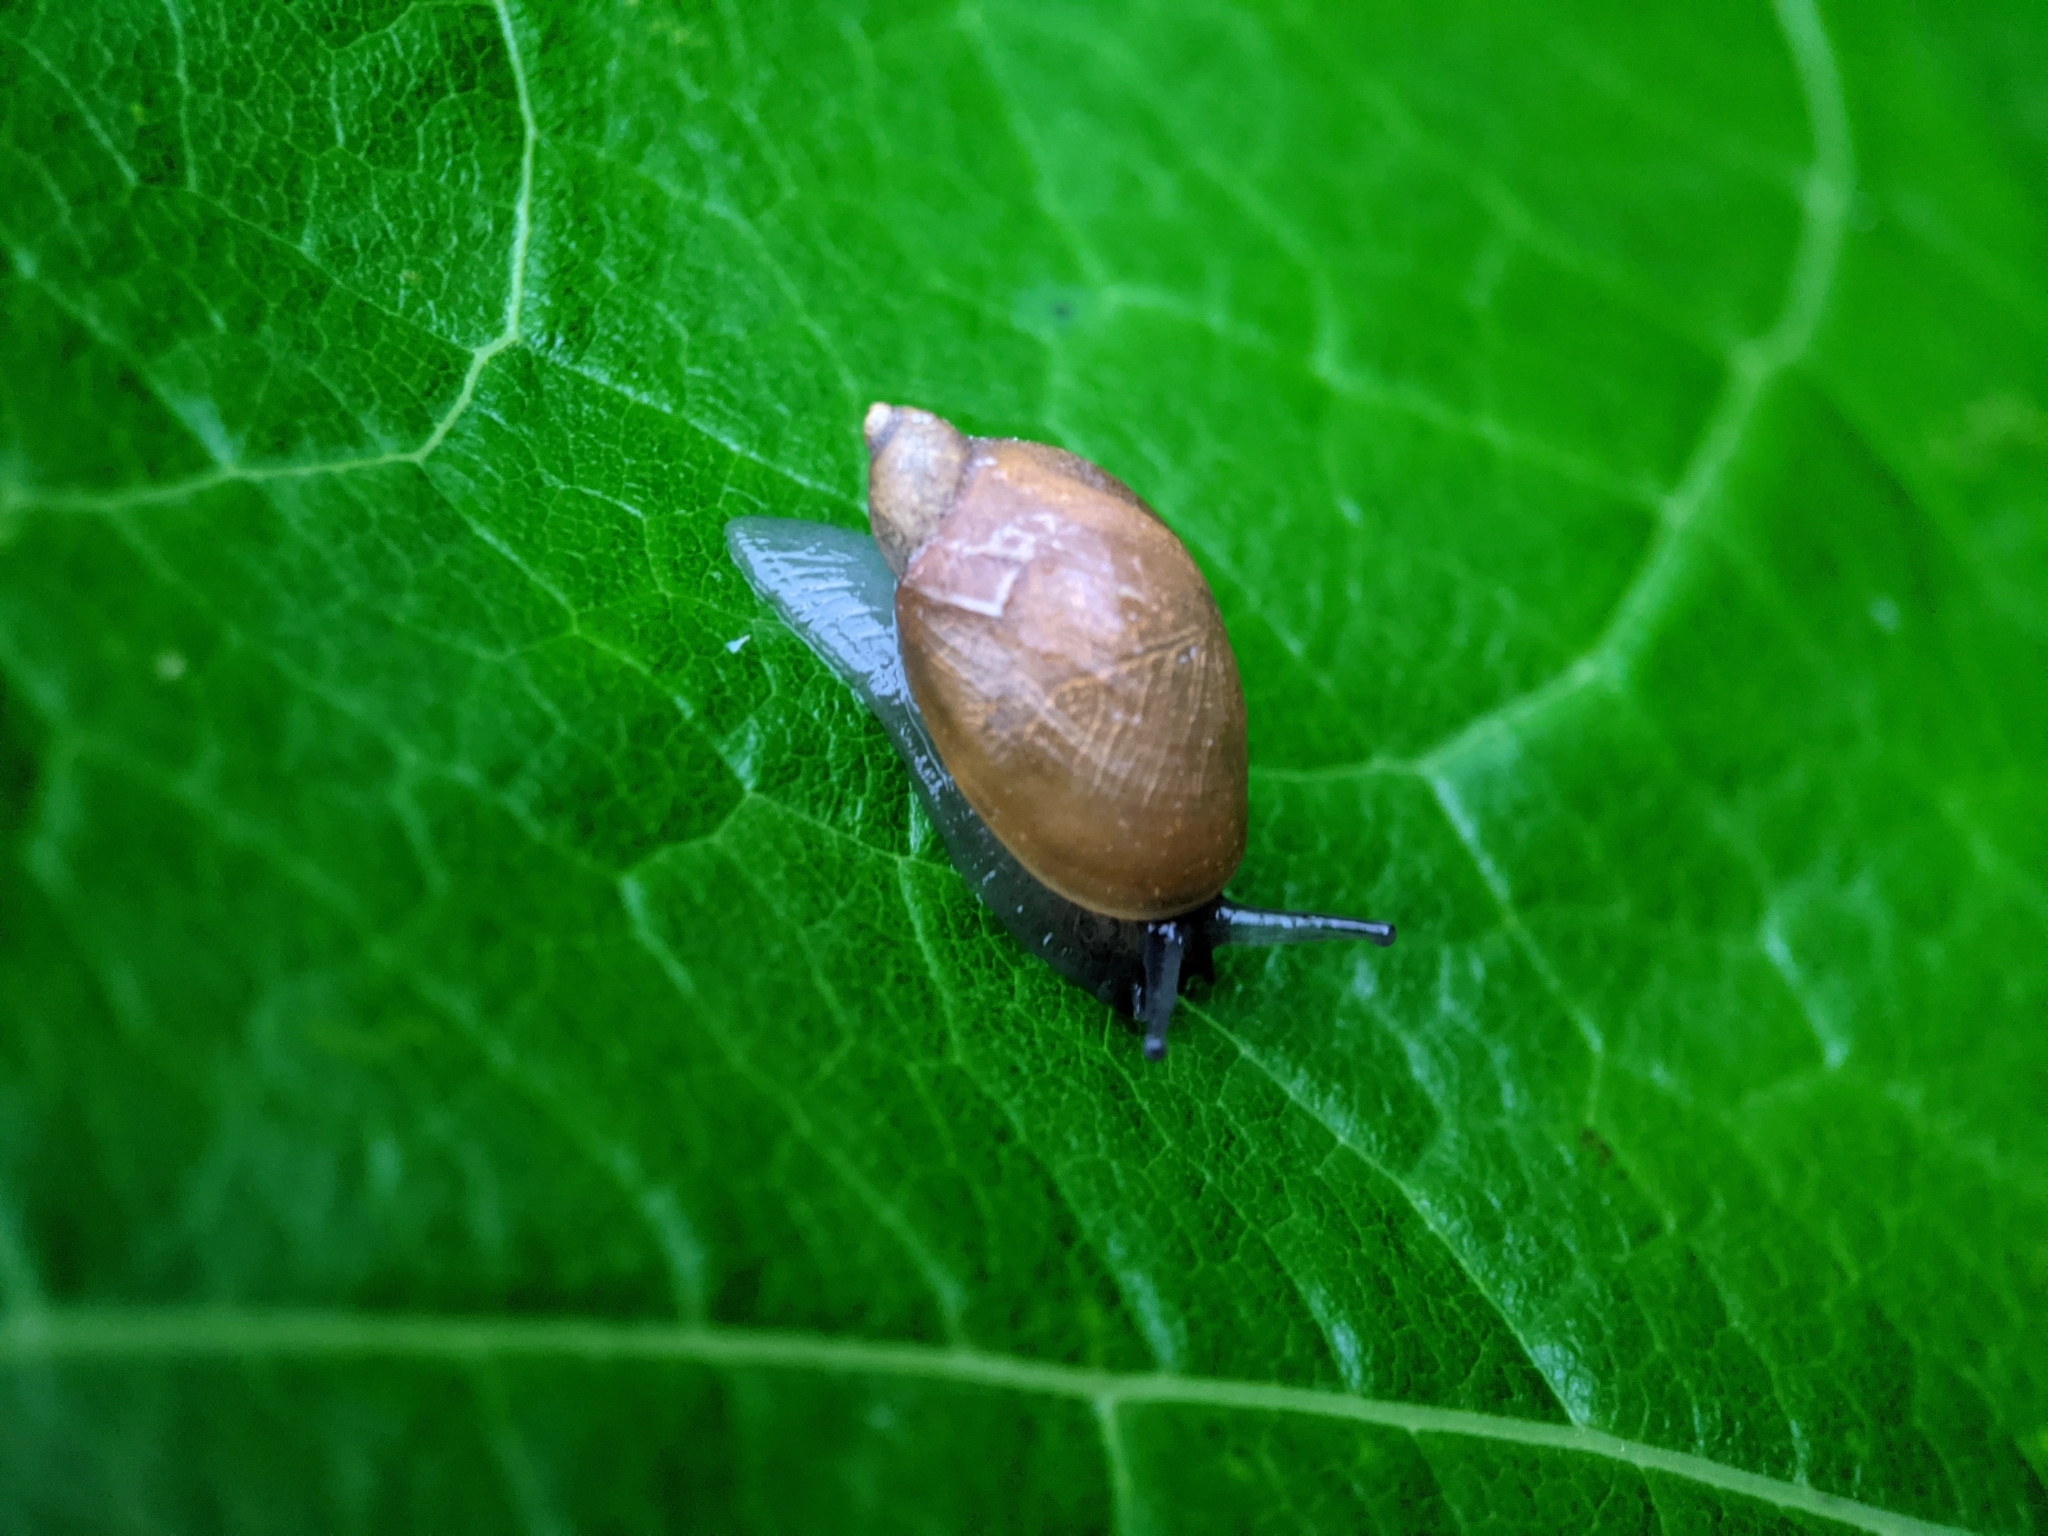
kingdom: Animalia
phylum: Mollusca
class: Gastropoda
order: Stylommatophora
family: Succineidae
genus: Succinea
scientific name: Succinea putris
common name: European ambersnail
